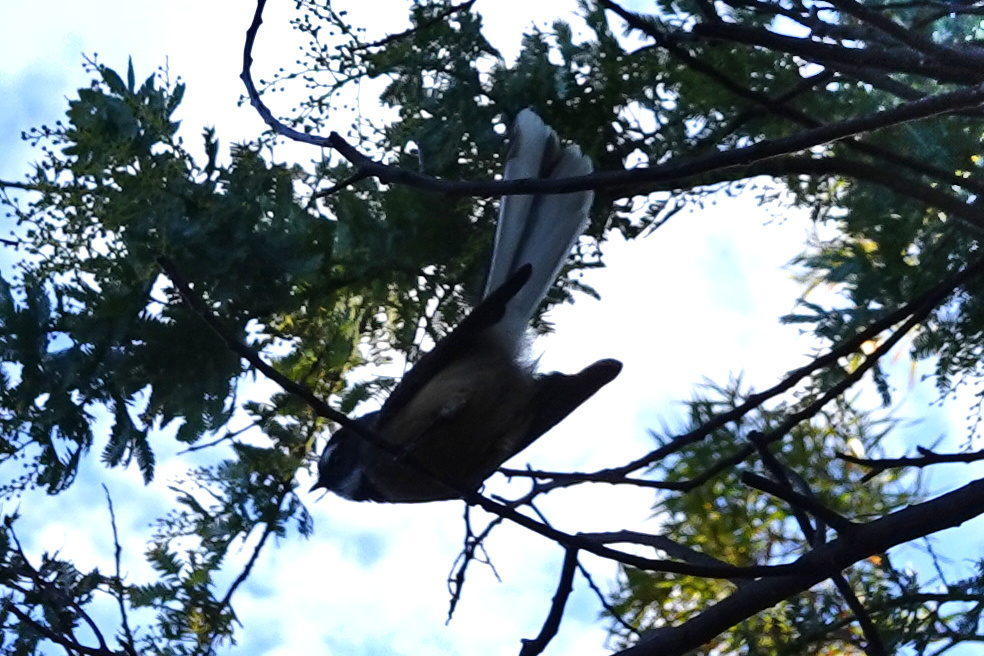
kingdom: Animalia
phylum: Chordata
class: Aves
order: Passeriformes
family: Rhipiduridae
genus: Rhipidura
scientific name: Rhipidura fuliginosa
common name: New zealand fantail
